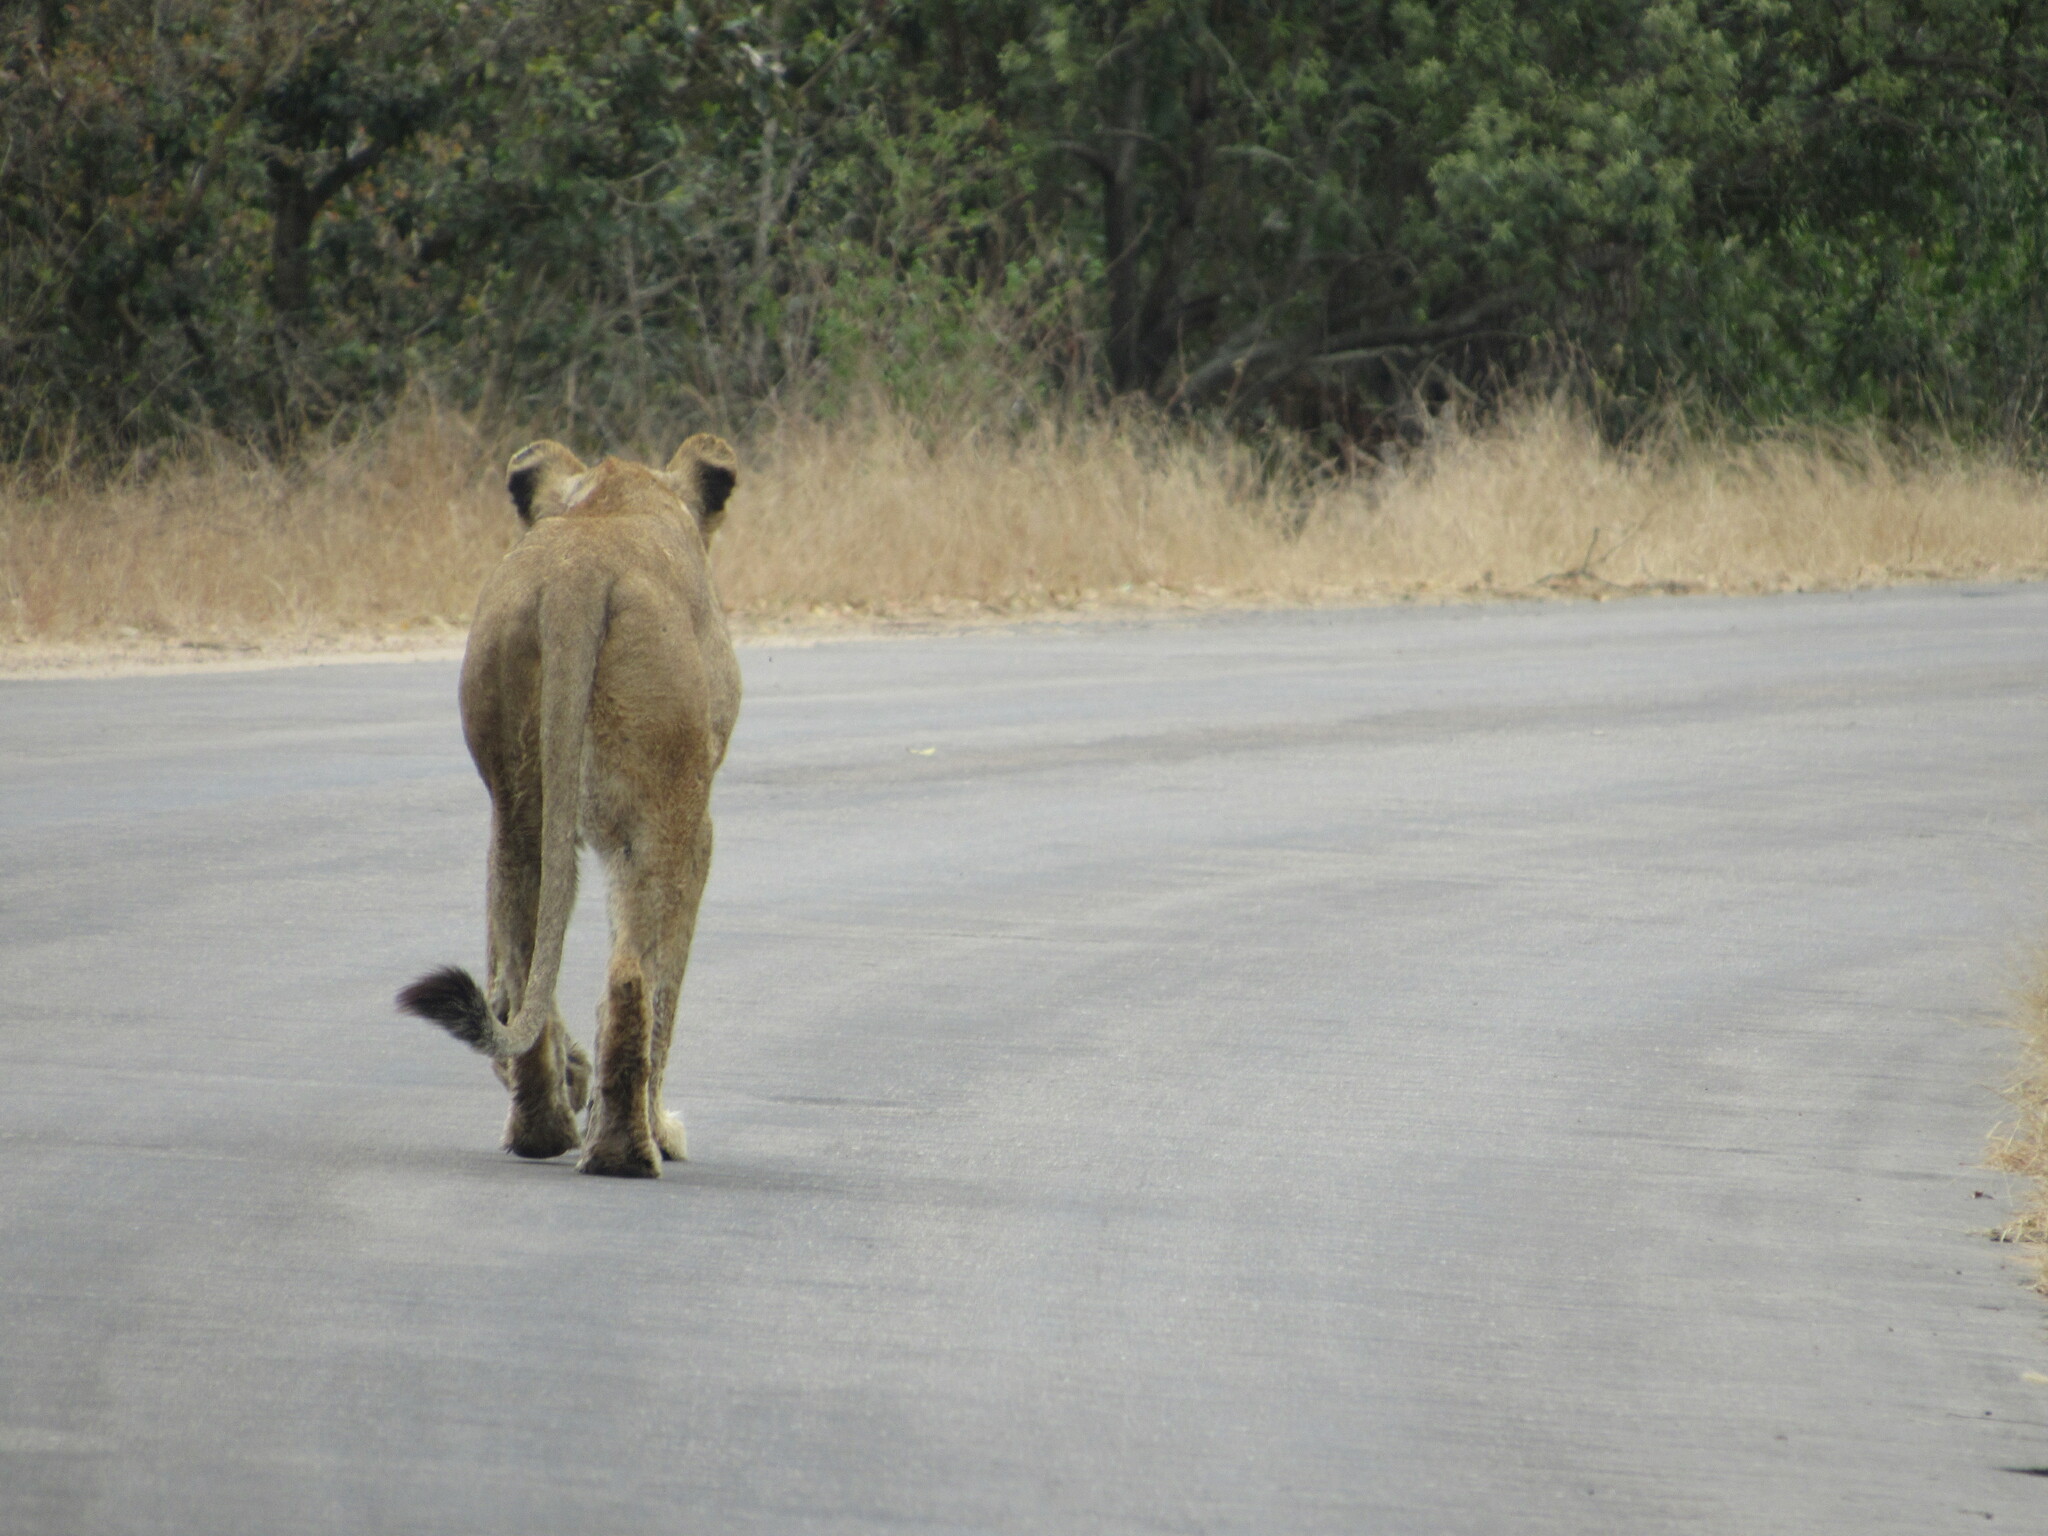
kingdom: Animalia
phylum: Chordata
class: Mammalia
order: Carnivora
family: Felidae
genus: Panthera
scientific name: Panthera leo
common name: Lion
